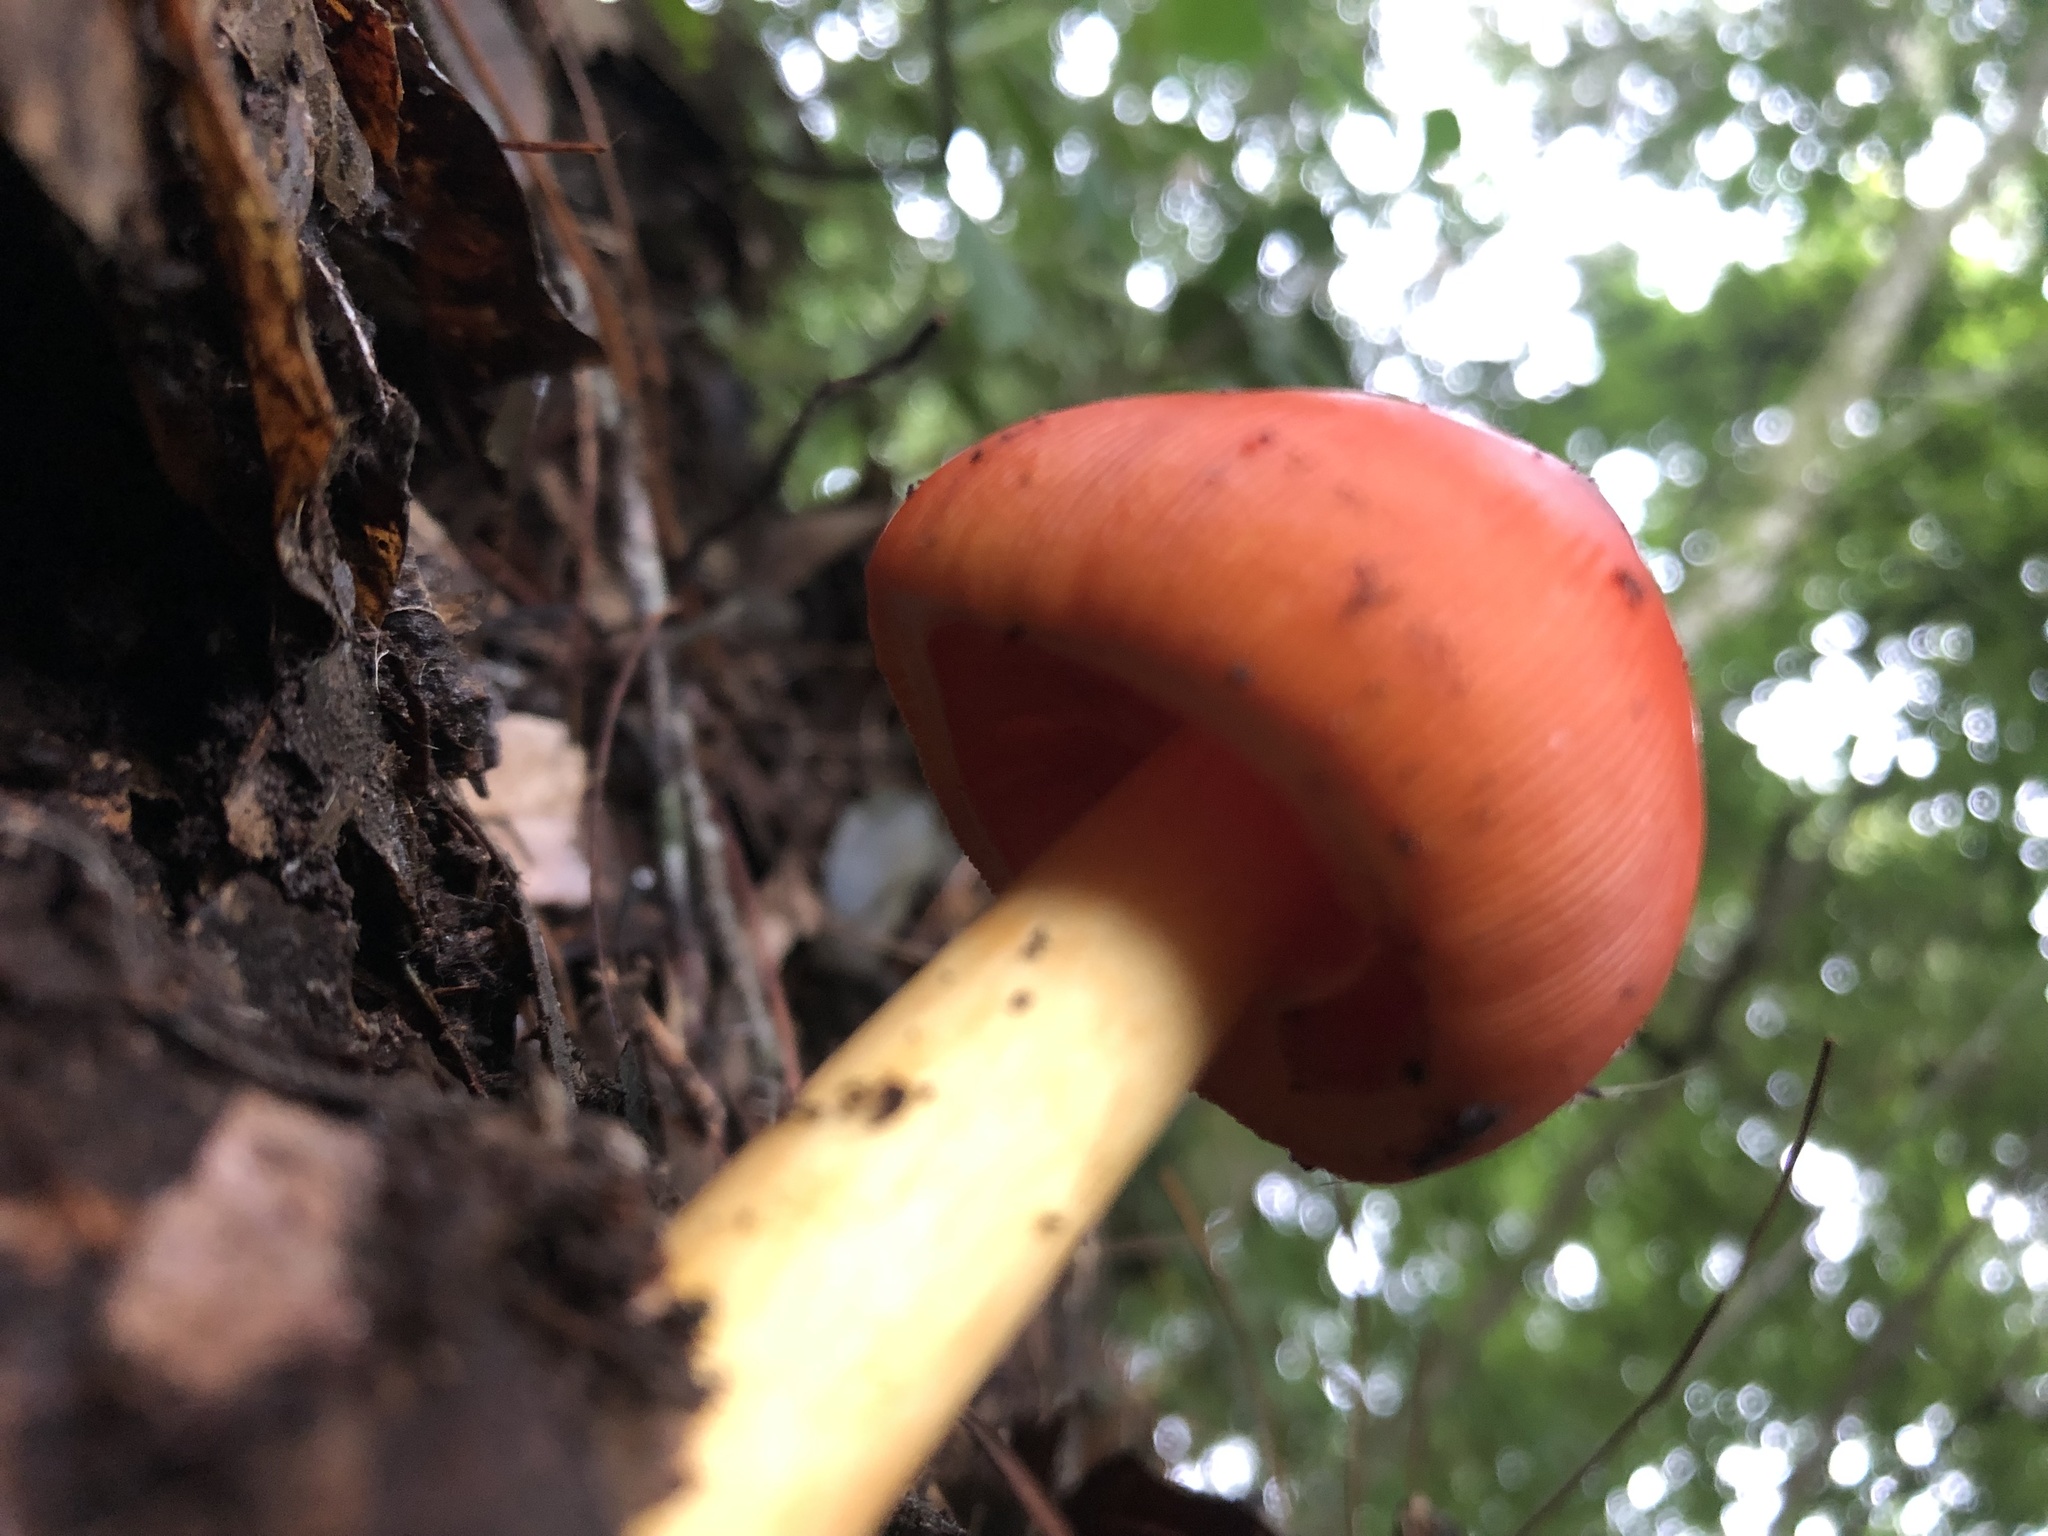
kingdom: Fungi
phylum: Basidiomycota
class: Agaricomycetes
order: Agaricales
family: Amanitaceae
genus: Amanita
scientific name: Amanita jacksonii
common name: Jackson's slender caesar
